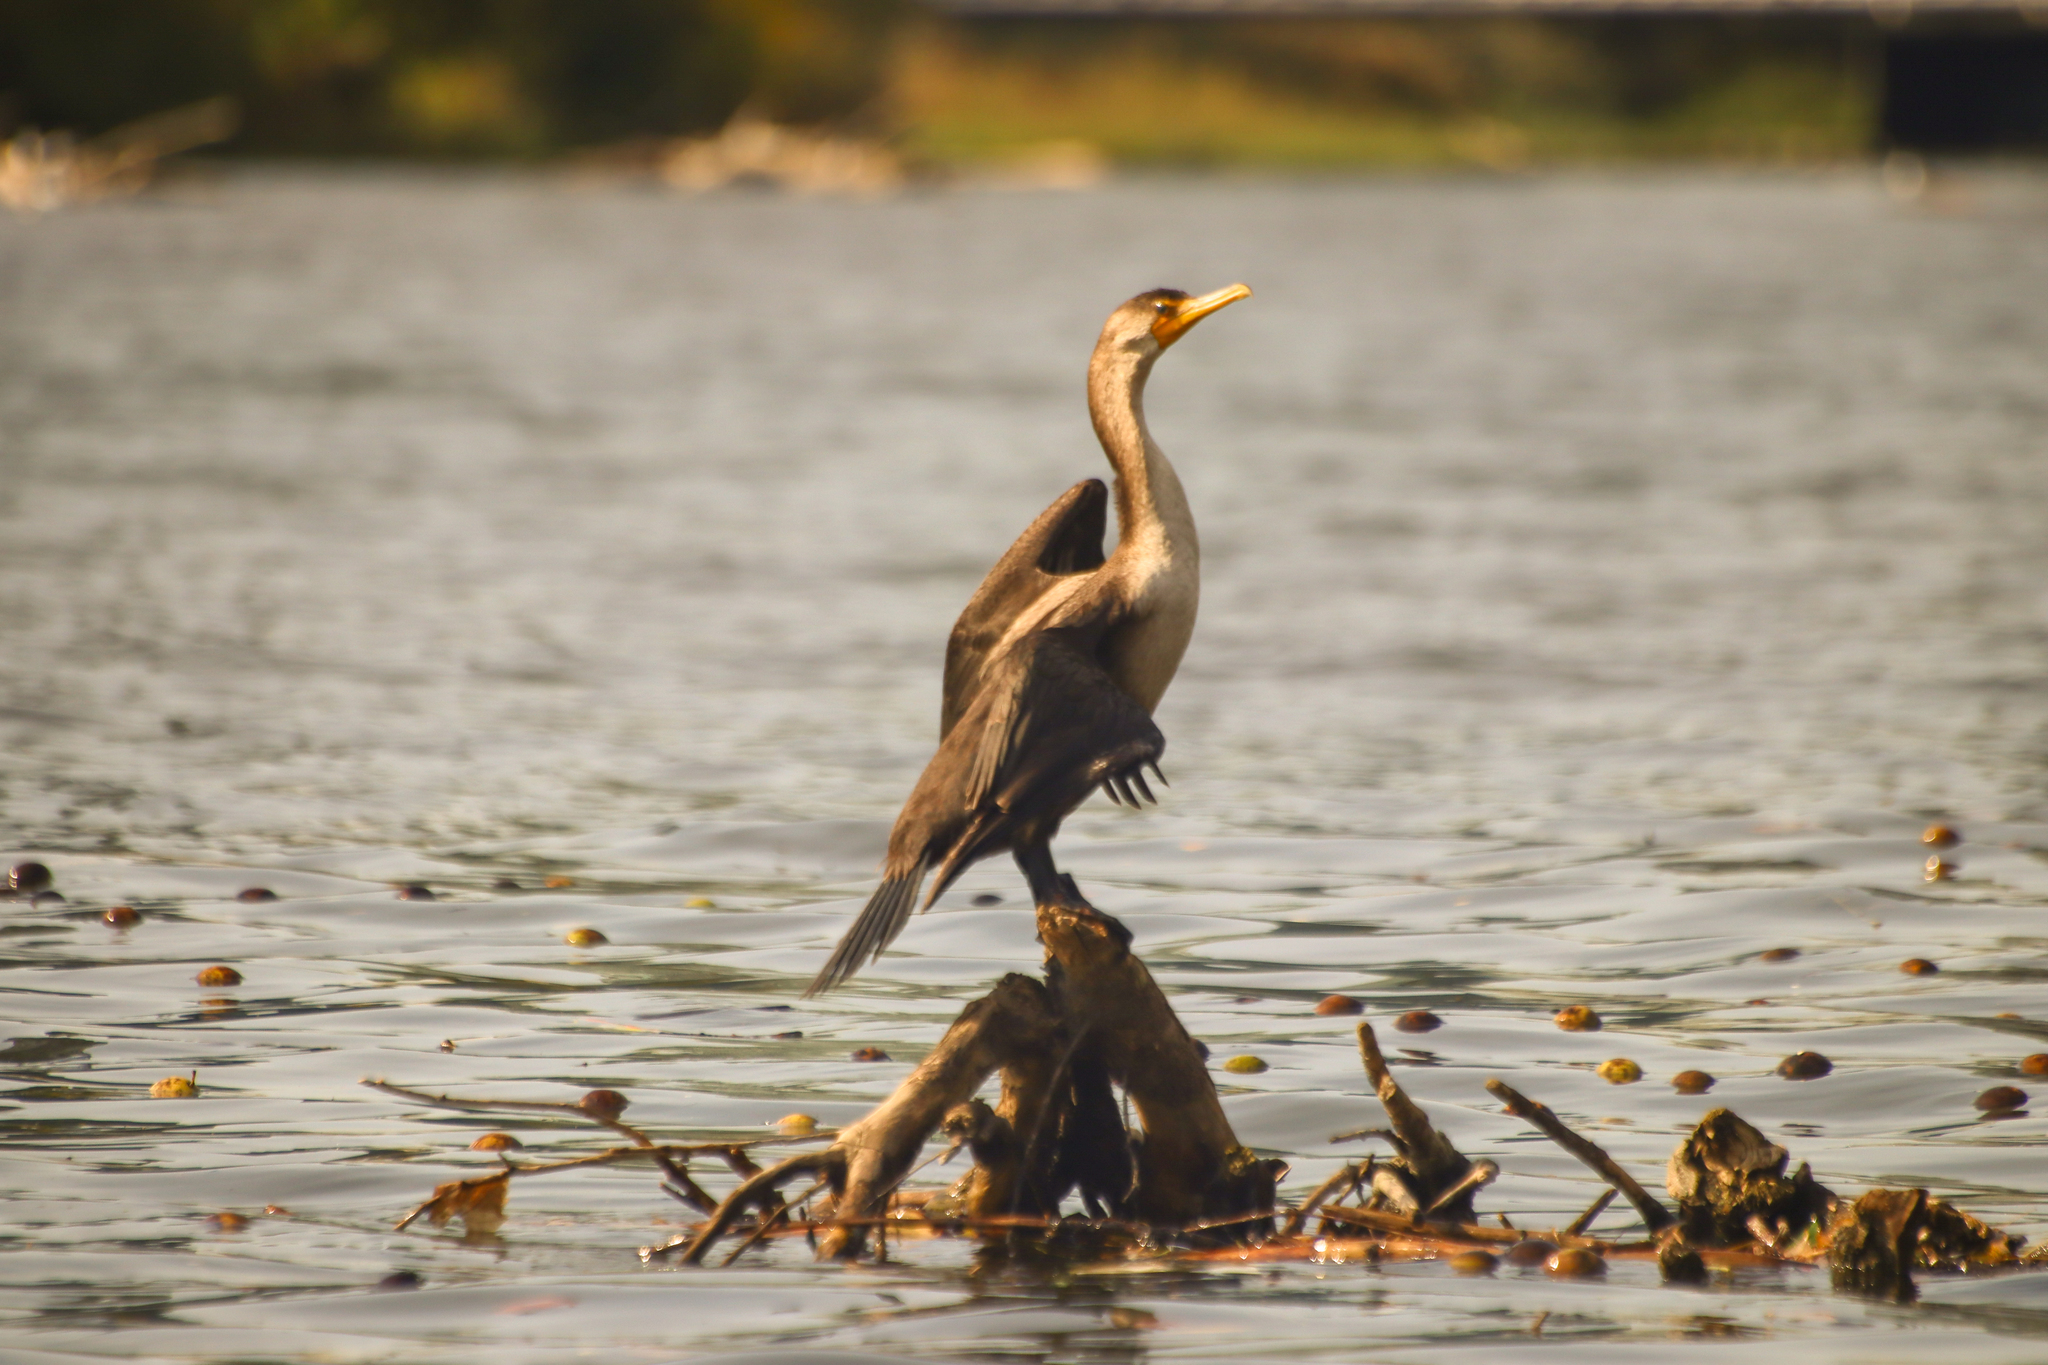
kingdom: Animalia
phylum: Chordata
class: Aves
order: Suliformes
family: Phalacrocoracidae
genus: Phalacrocorax
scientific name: Phalacrocorax auritus
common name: Double-crested cormorant
